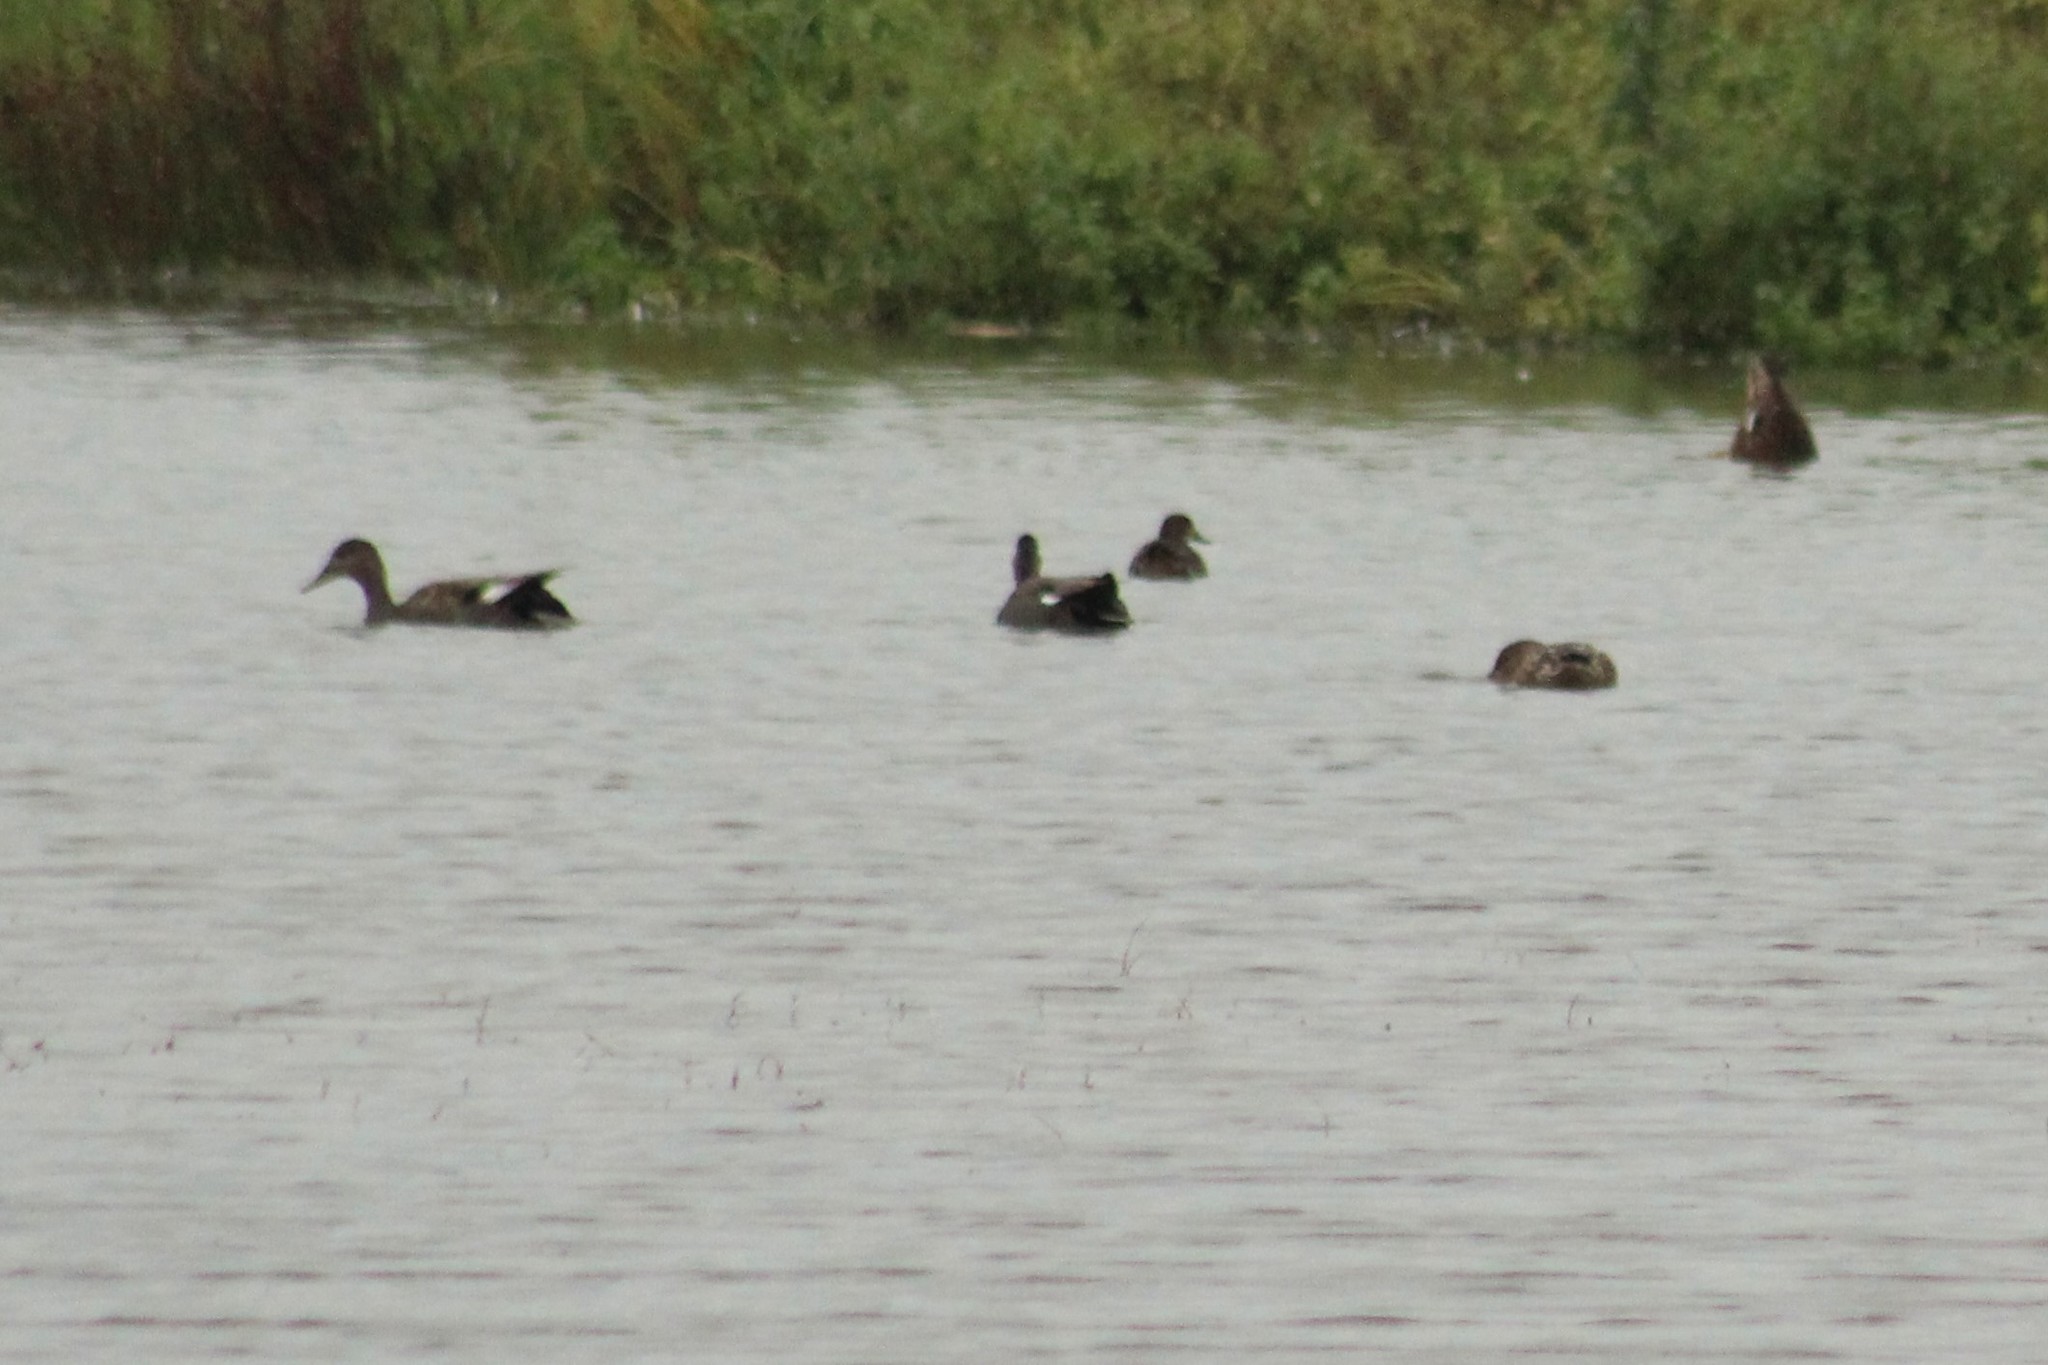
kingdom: Animalia
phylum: Chordata
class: Aves
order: Anseriformes
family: Anatidae
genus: Mareca
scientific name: Mareca strepera
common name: Gadwall
